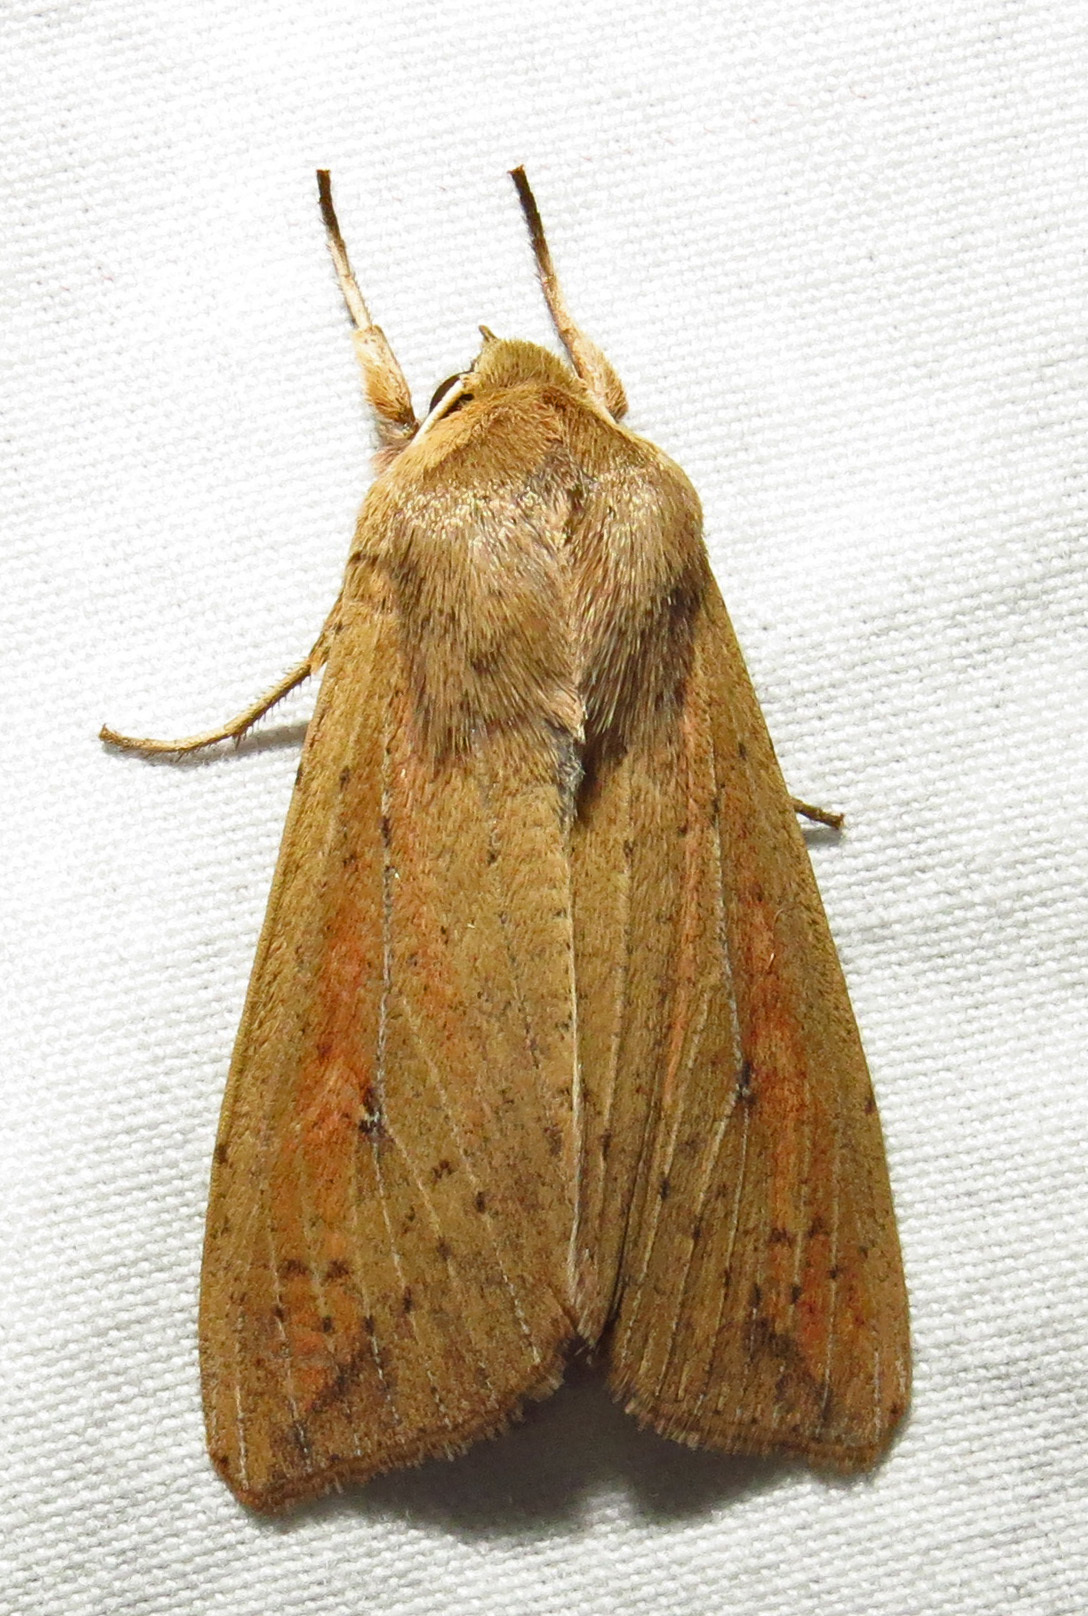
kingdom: Animalia
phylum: Arthropoda
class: Insecta
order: Lepidoptera
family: Noctuidae
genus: Mythimna
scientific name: Mythimna unipuncta
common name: White-speck
